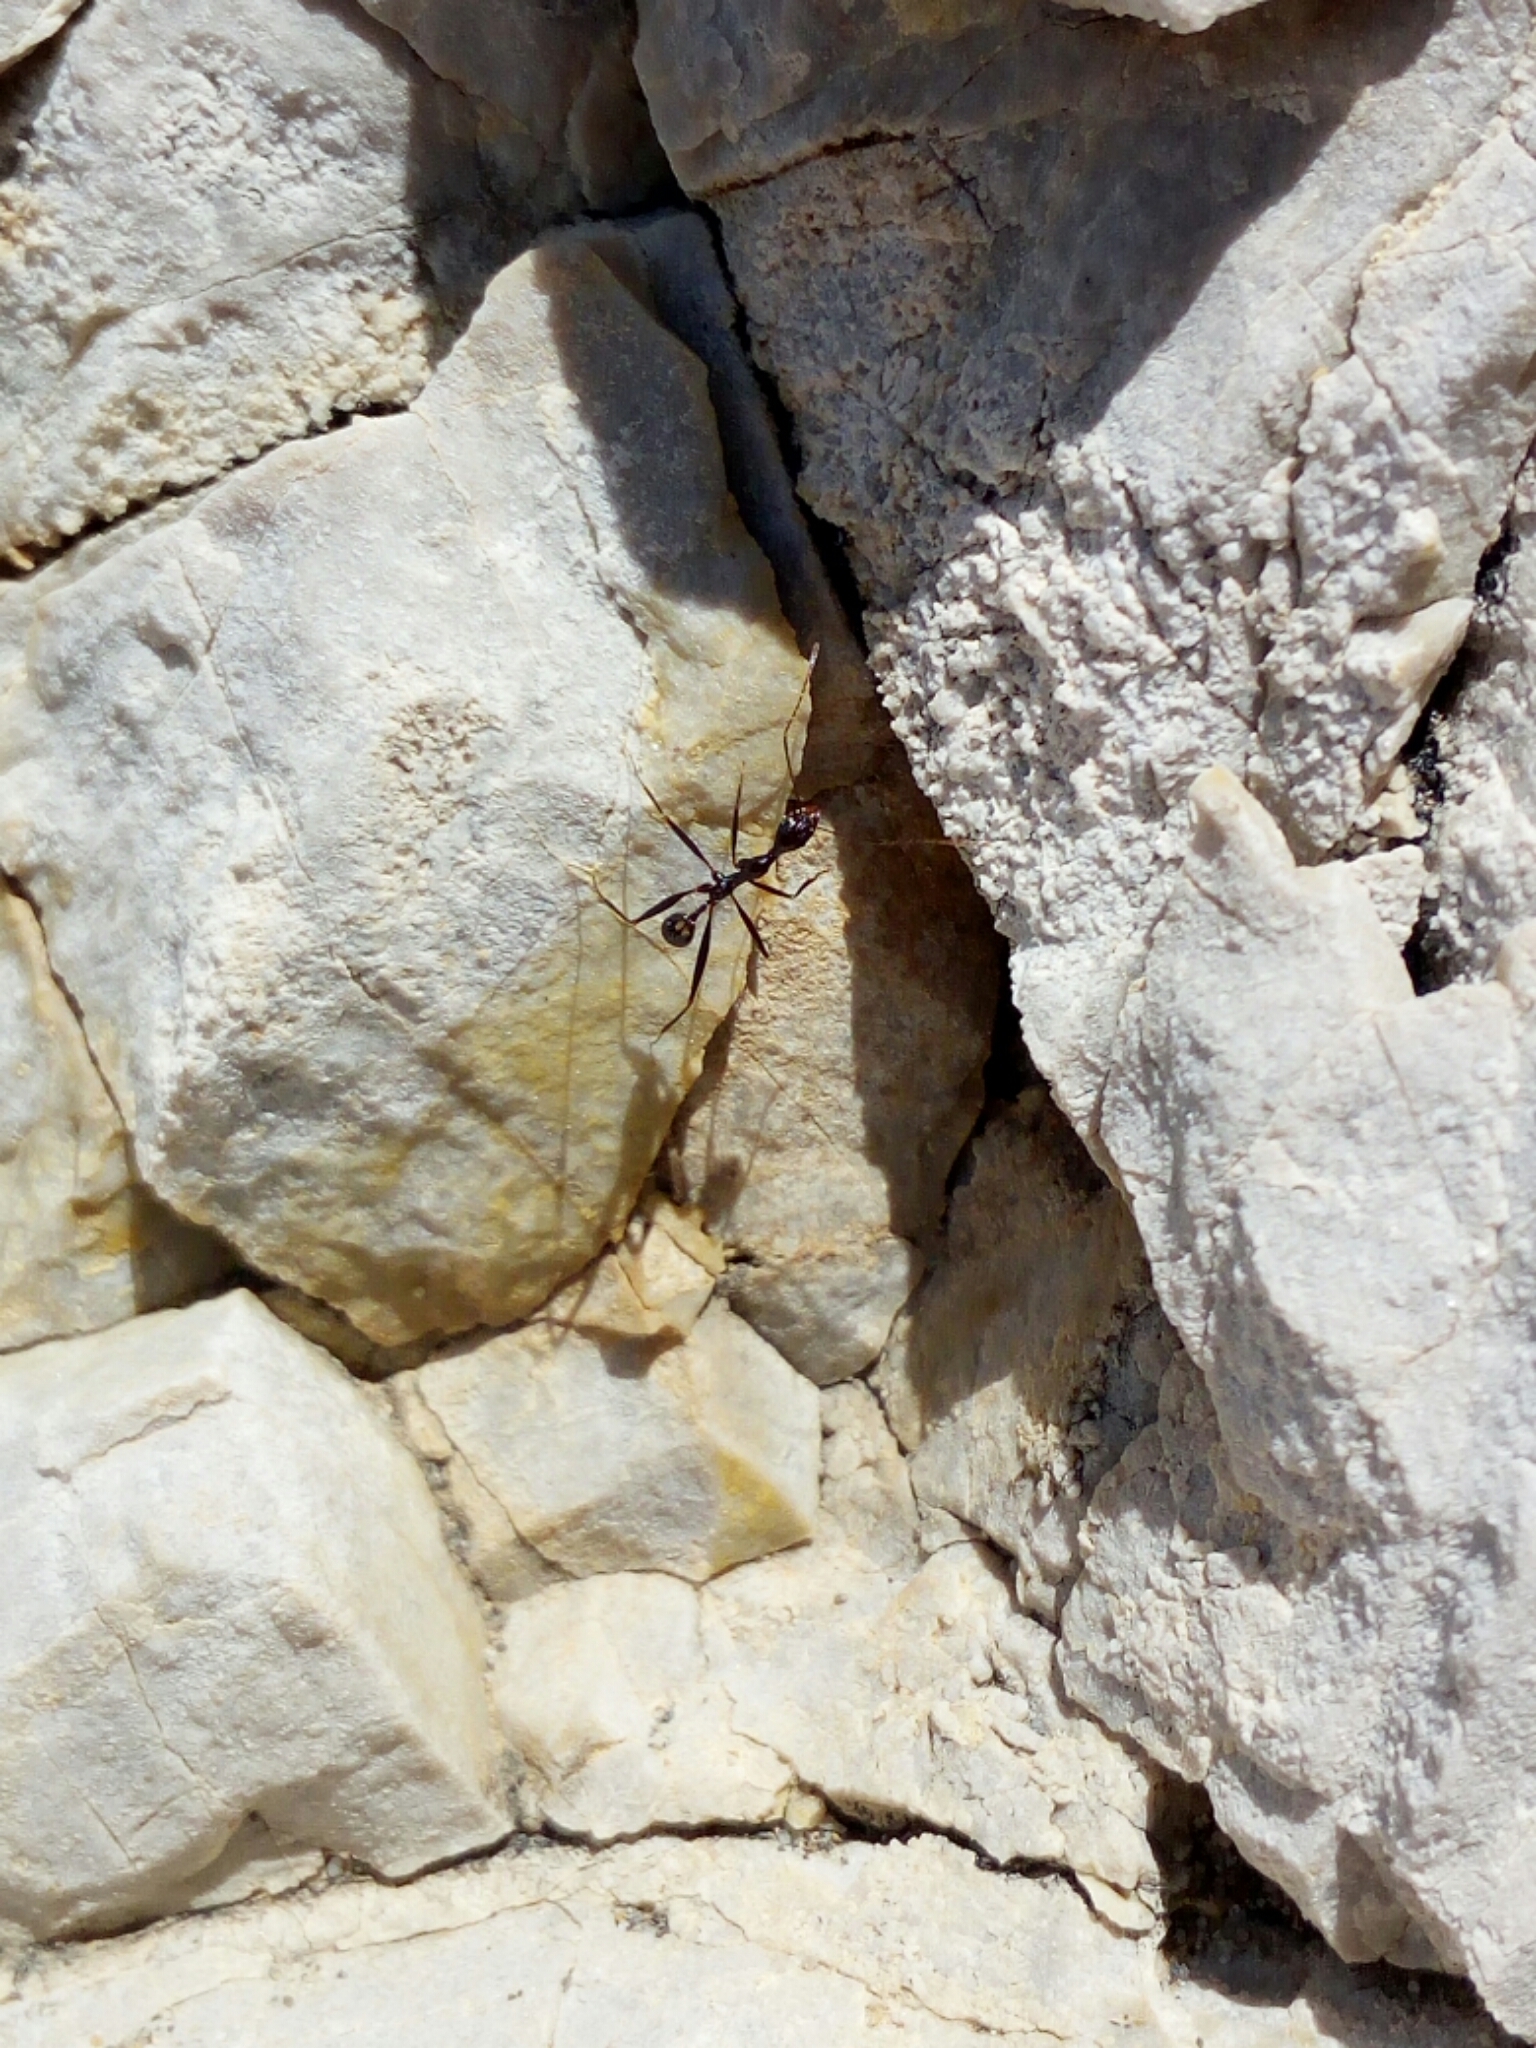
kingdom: Animalia
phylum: Arthropoda
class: Insecta
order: Hymenoptera
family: Formicidae
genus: Aphaenogaster
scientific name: Aphaenogaster cecconii
